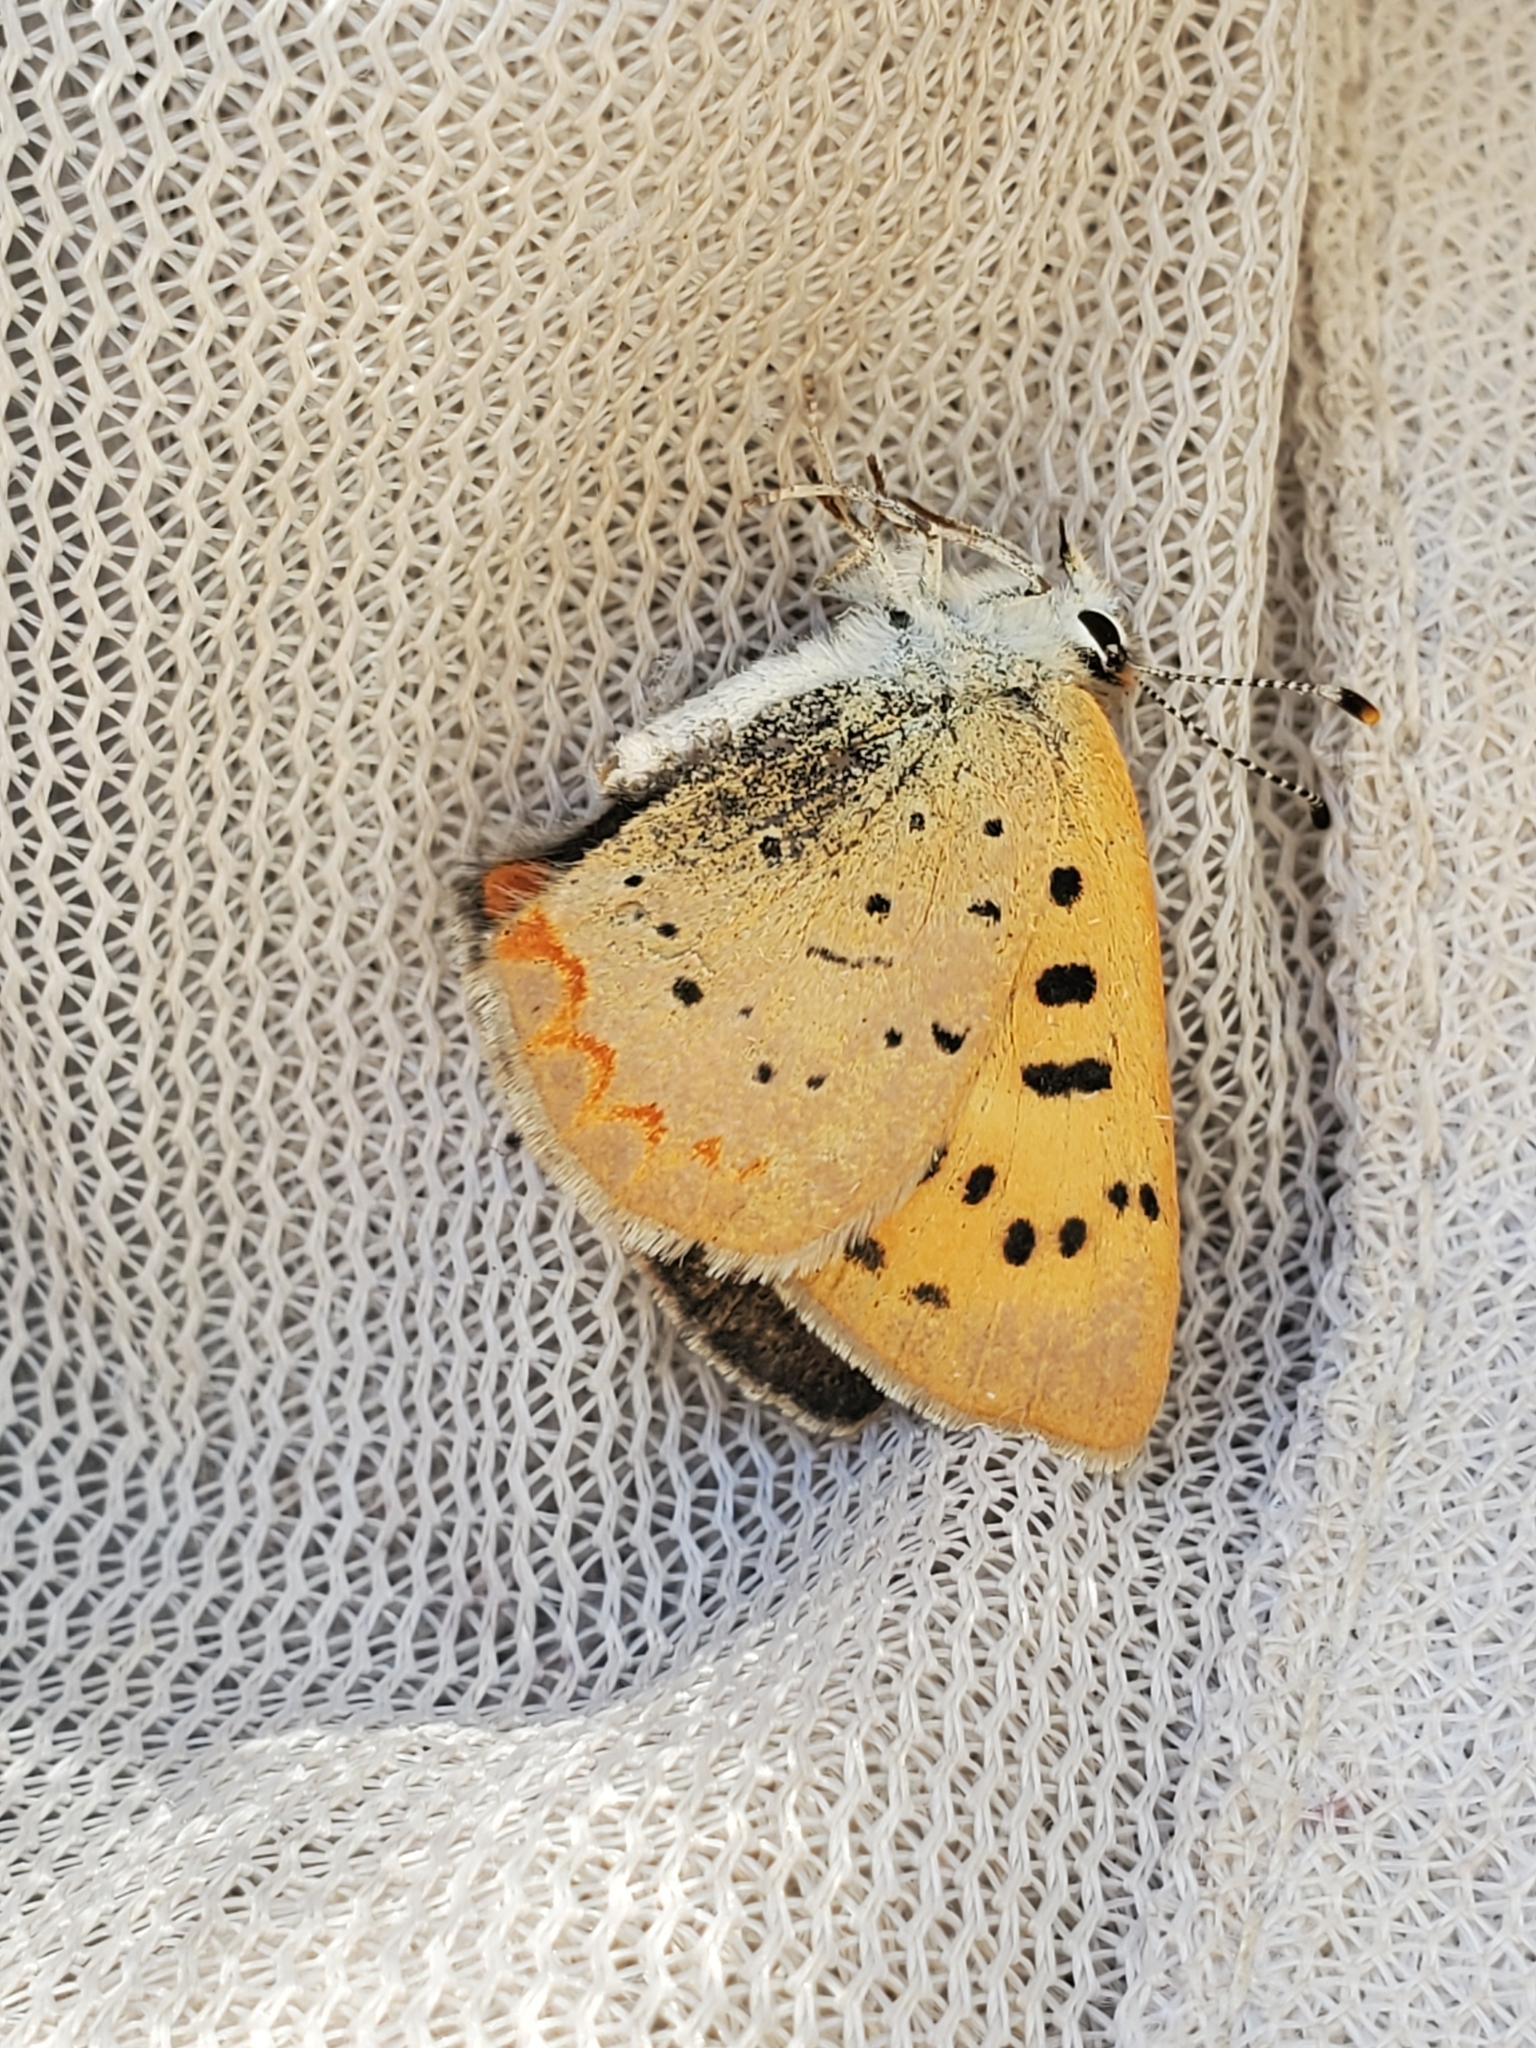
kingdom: Animalia
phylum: Arthropoda
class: Insecta
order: Lepidoptera
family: Lycaenidae
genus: Tharsalea
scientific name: Tharsalea helloides
